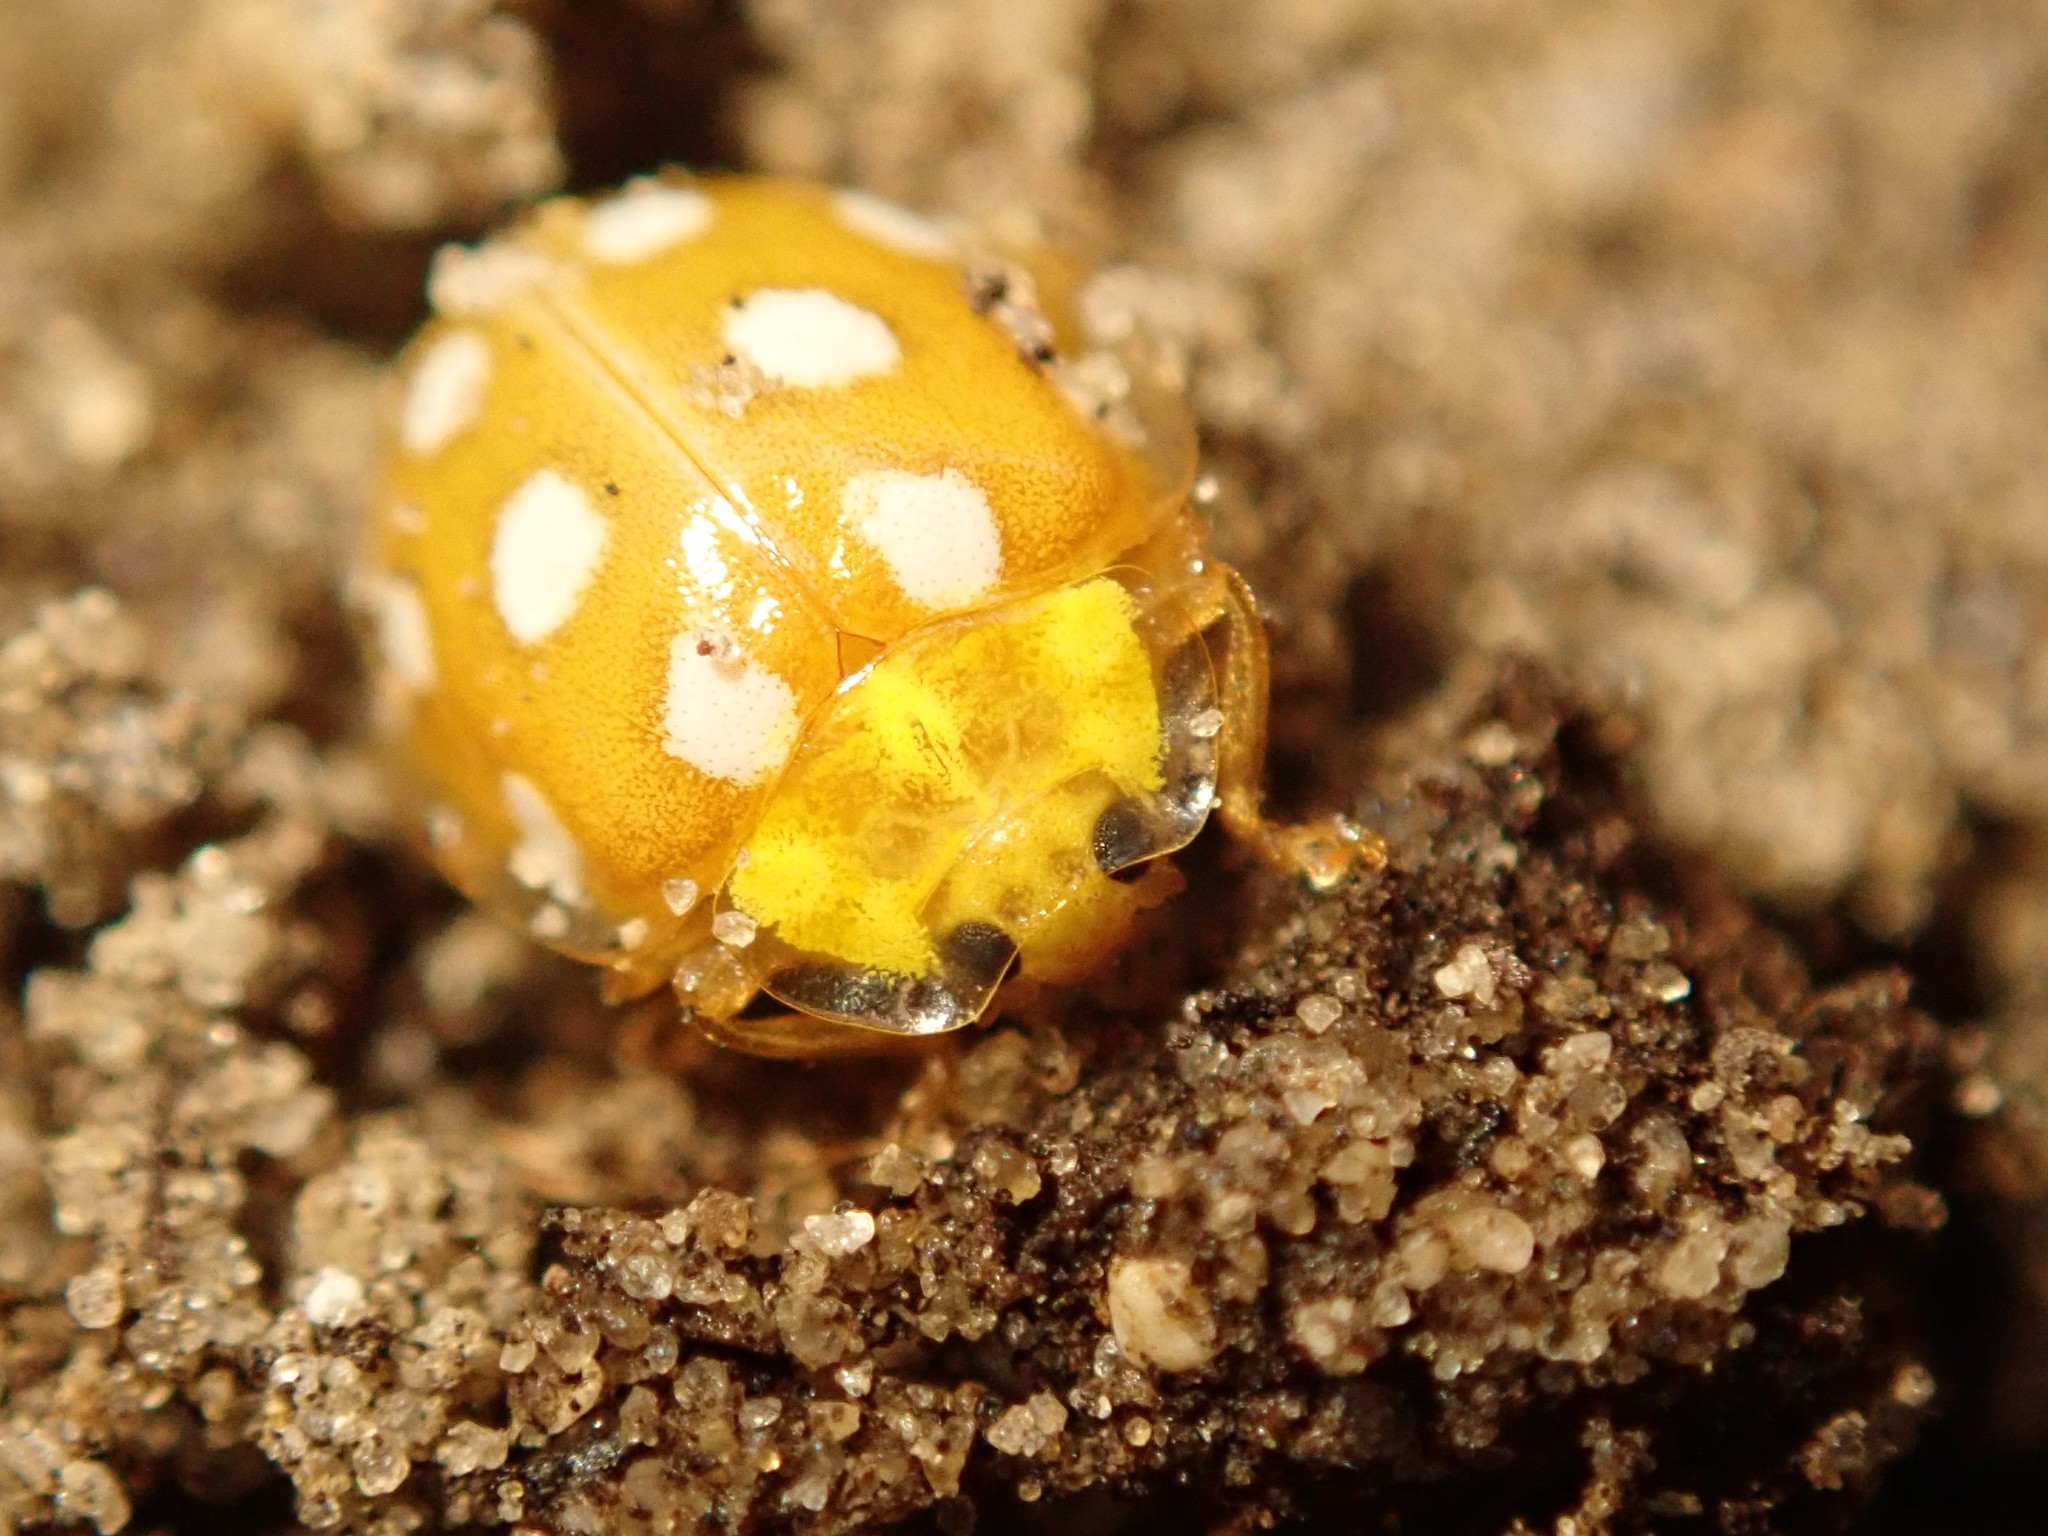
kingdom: Animalia
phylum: Arthropoda
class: Insecta
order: Coleoptera
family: Coccinellidae
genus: Halyzia
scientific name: Halyzia sedecimguttata
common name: Orange ladybird
